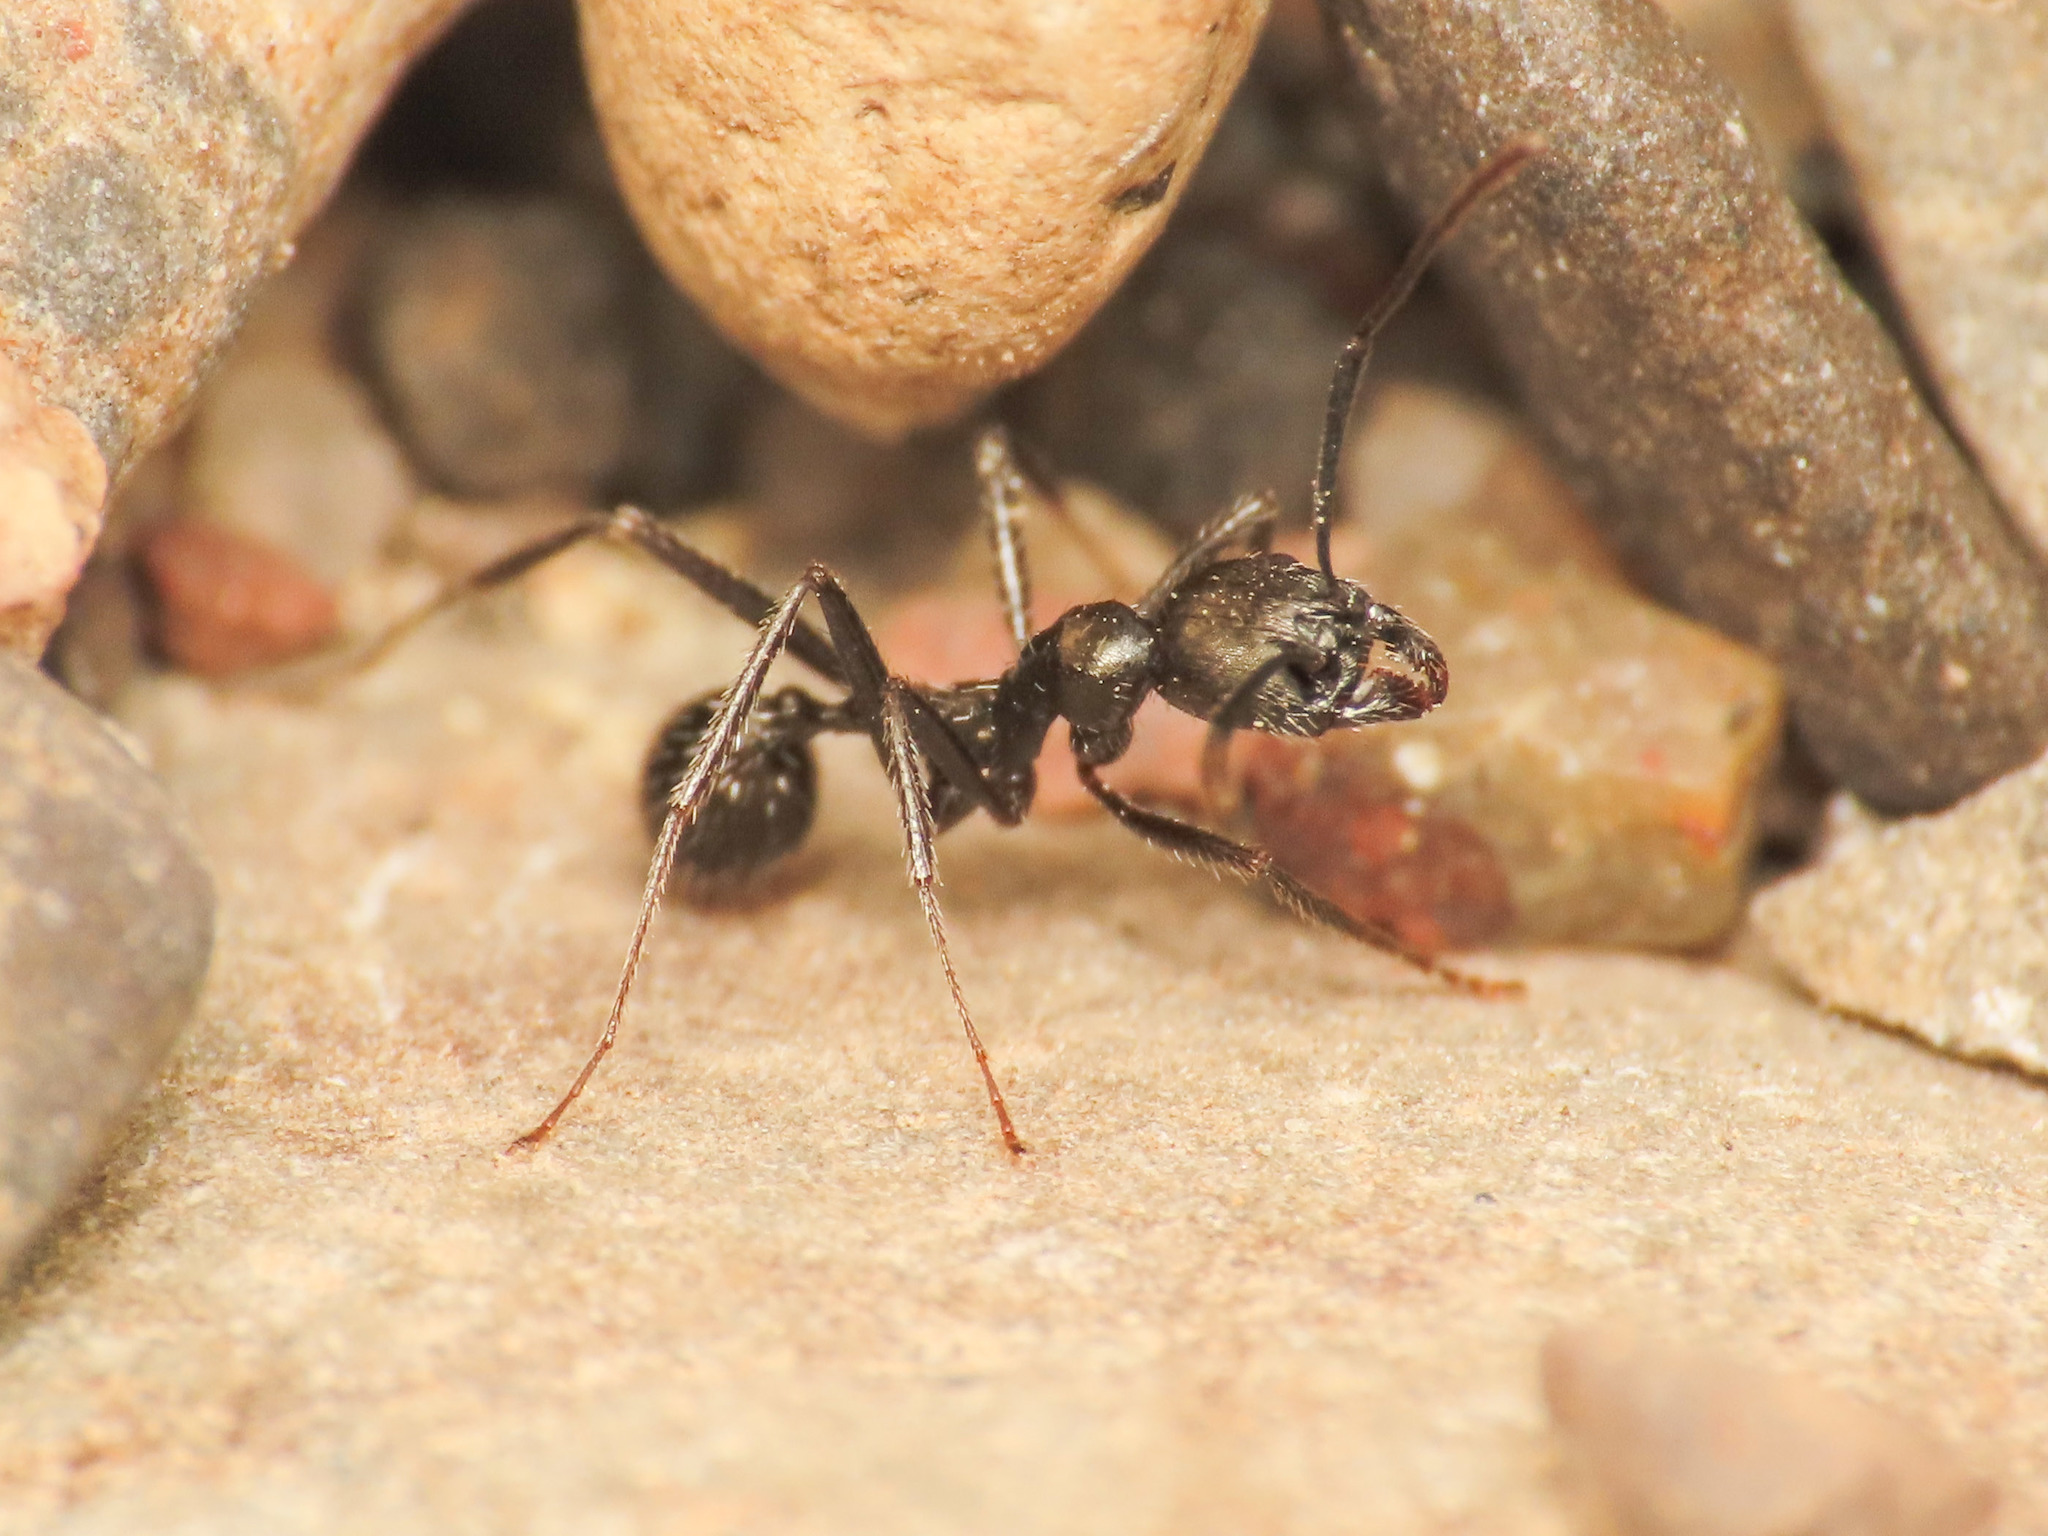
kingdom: Animalia
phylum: Arthropoda
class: Insecta
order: Hymenoptera
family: Formicidae
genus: Aphaenogaster
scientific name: Aphaenogaster spinosa
